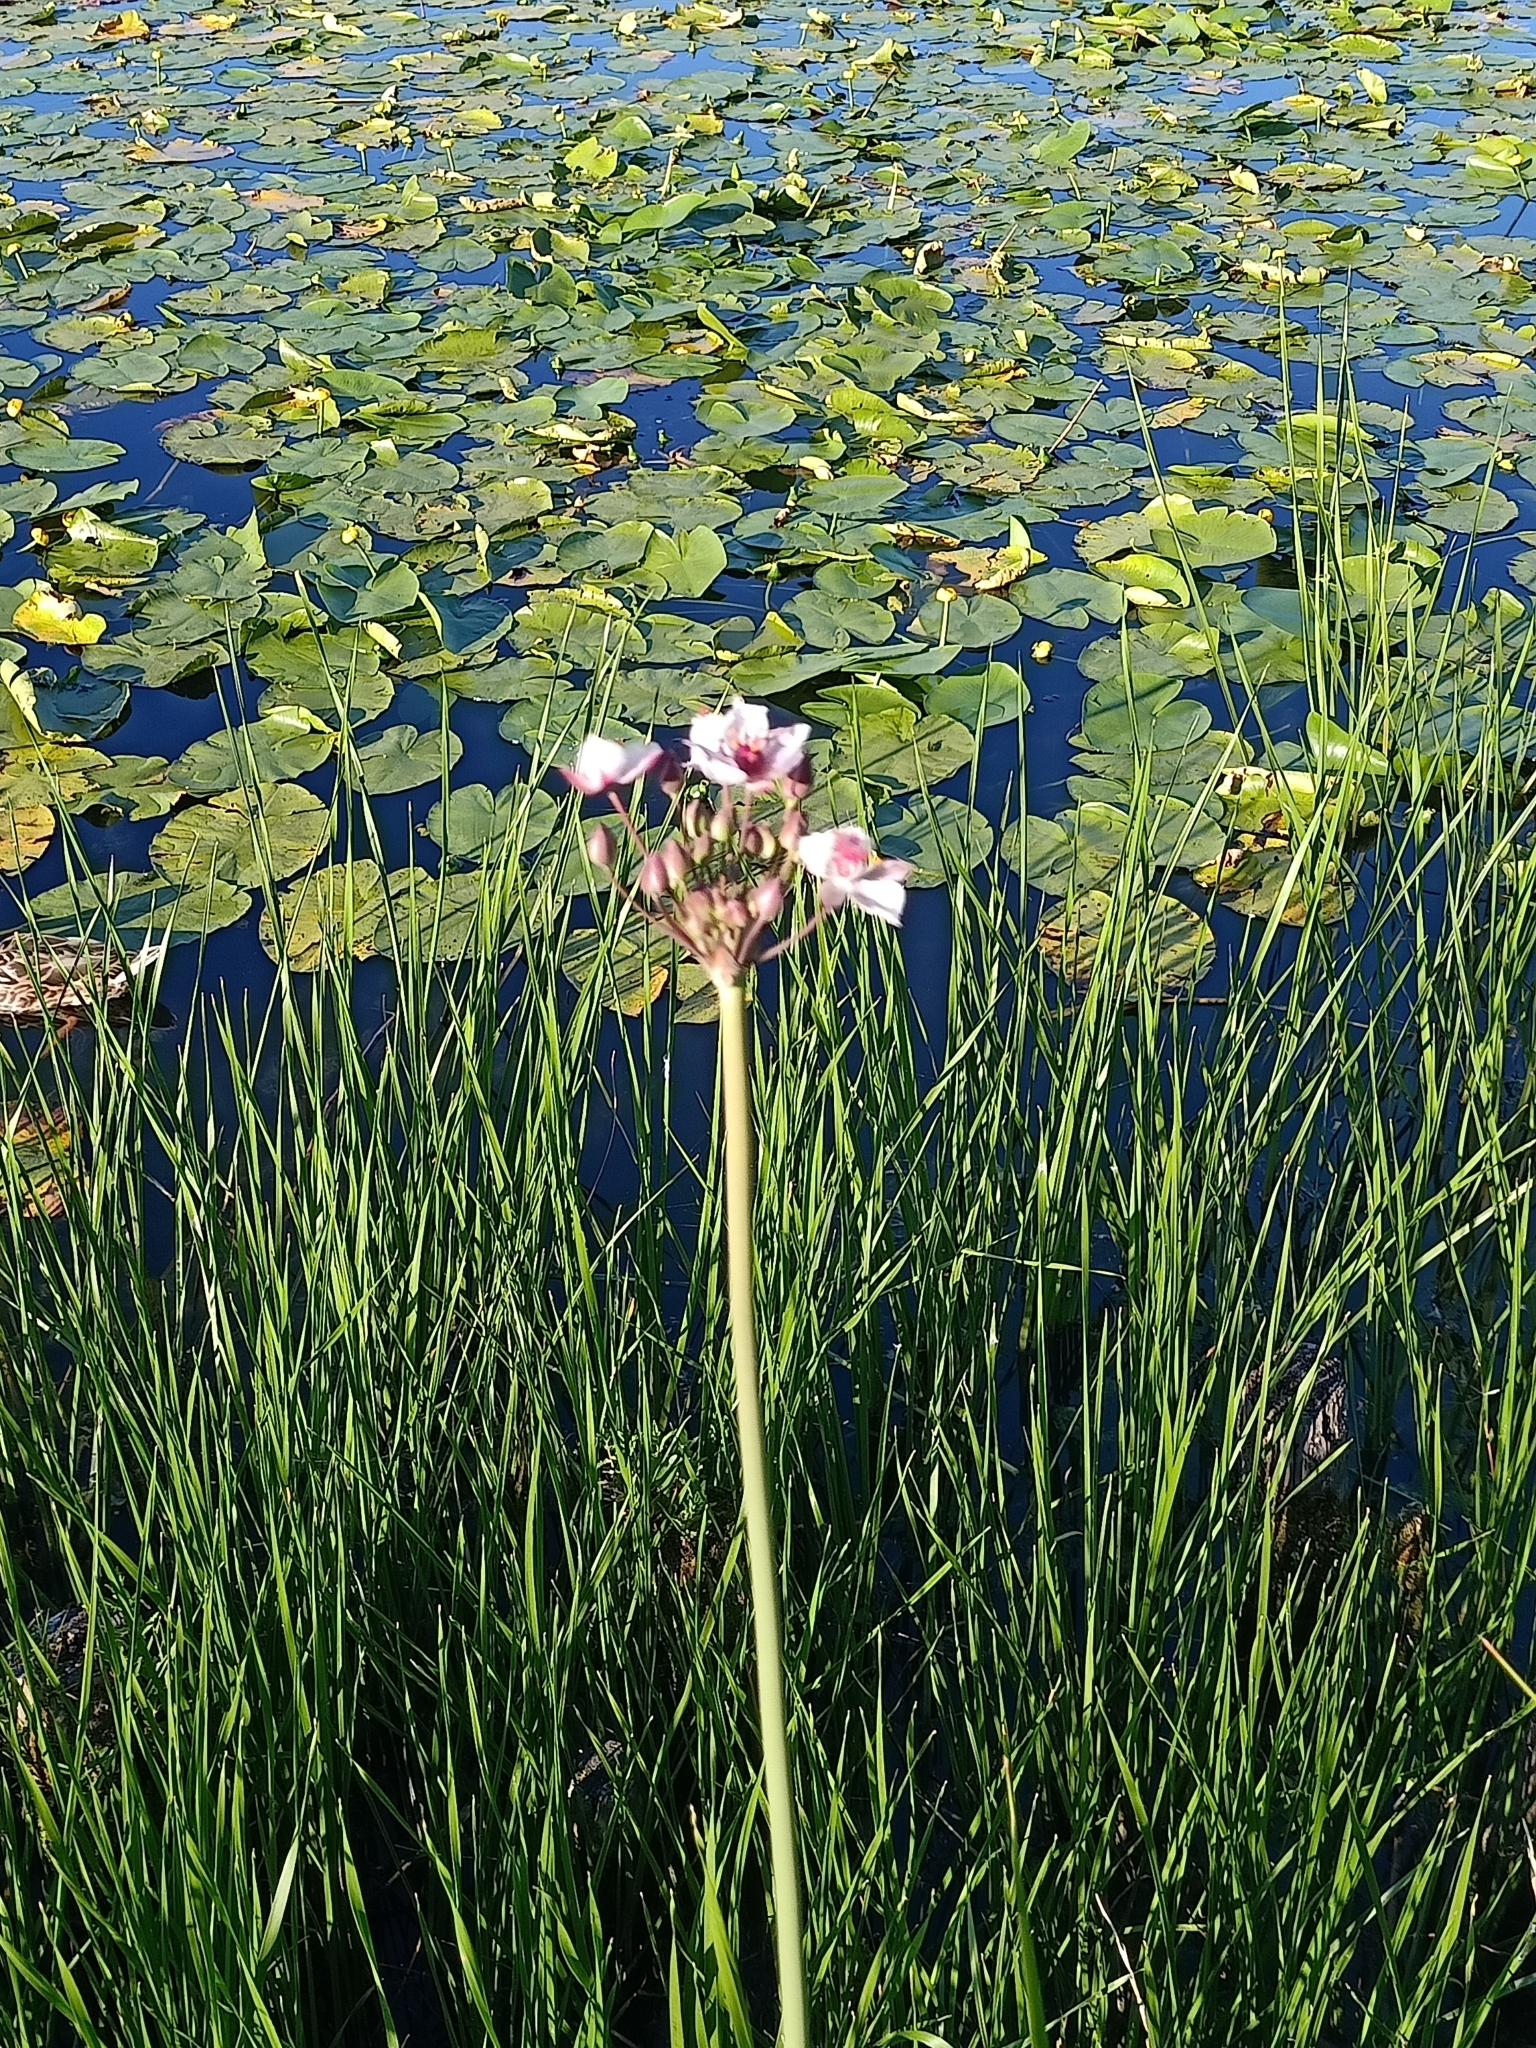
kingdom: Plantae
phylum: Tracheophyta
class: Liliopsida
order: Alismatales
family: Butomaceae
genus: Butomus
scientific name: Butomus umbellatus
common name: Flowering-rush
